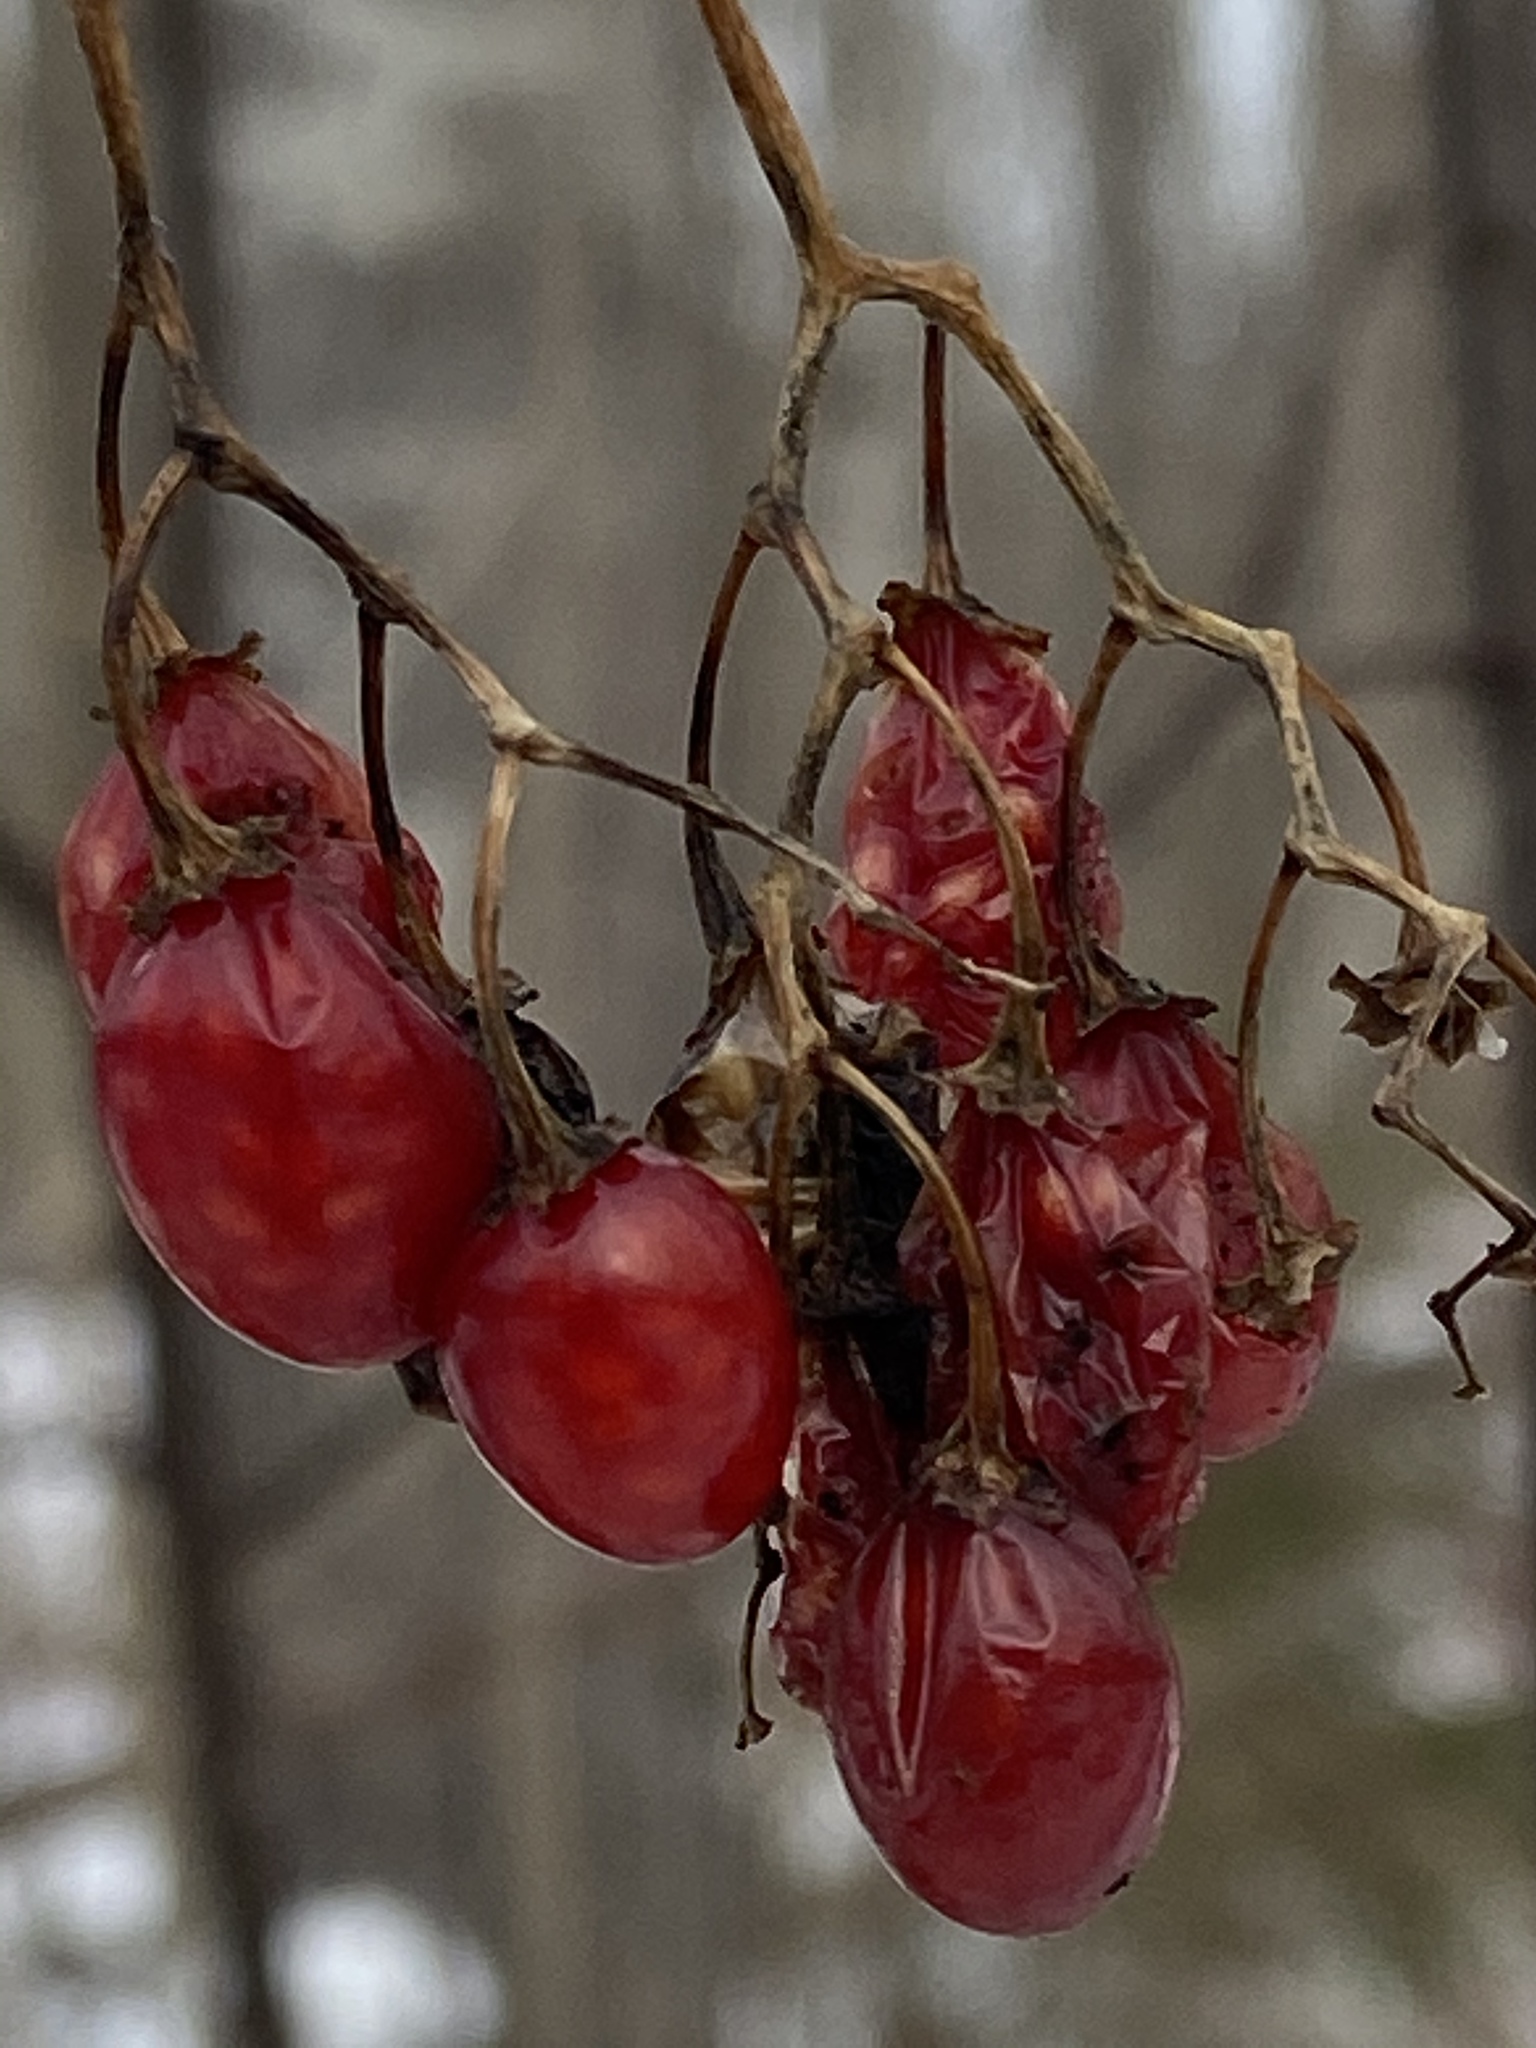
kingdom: Plantae
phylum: Tracheophyta
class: Magnoliopsida
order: Solanales
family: Solanaceae
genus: Solanum
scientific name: Solanum dulcamara
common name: Climbing nightshade
